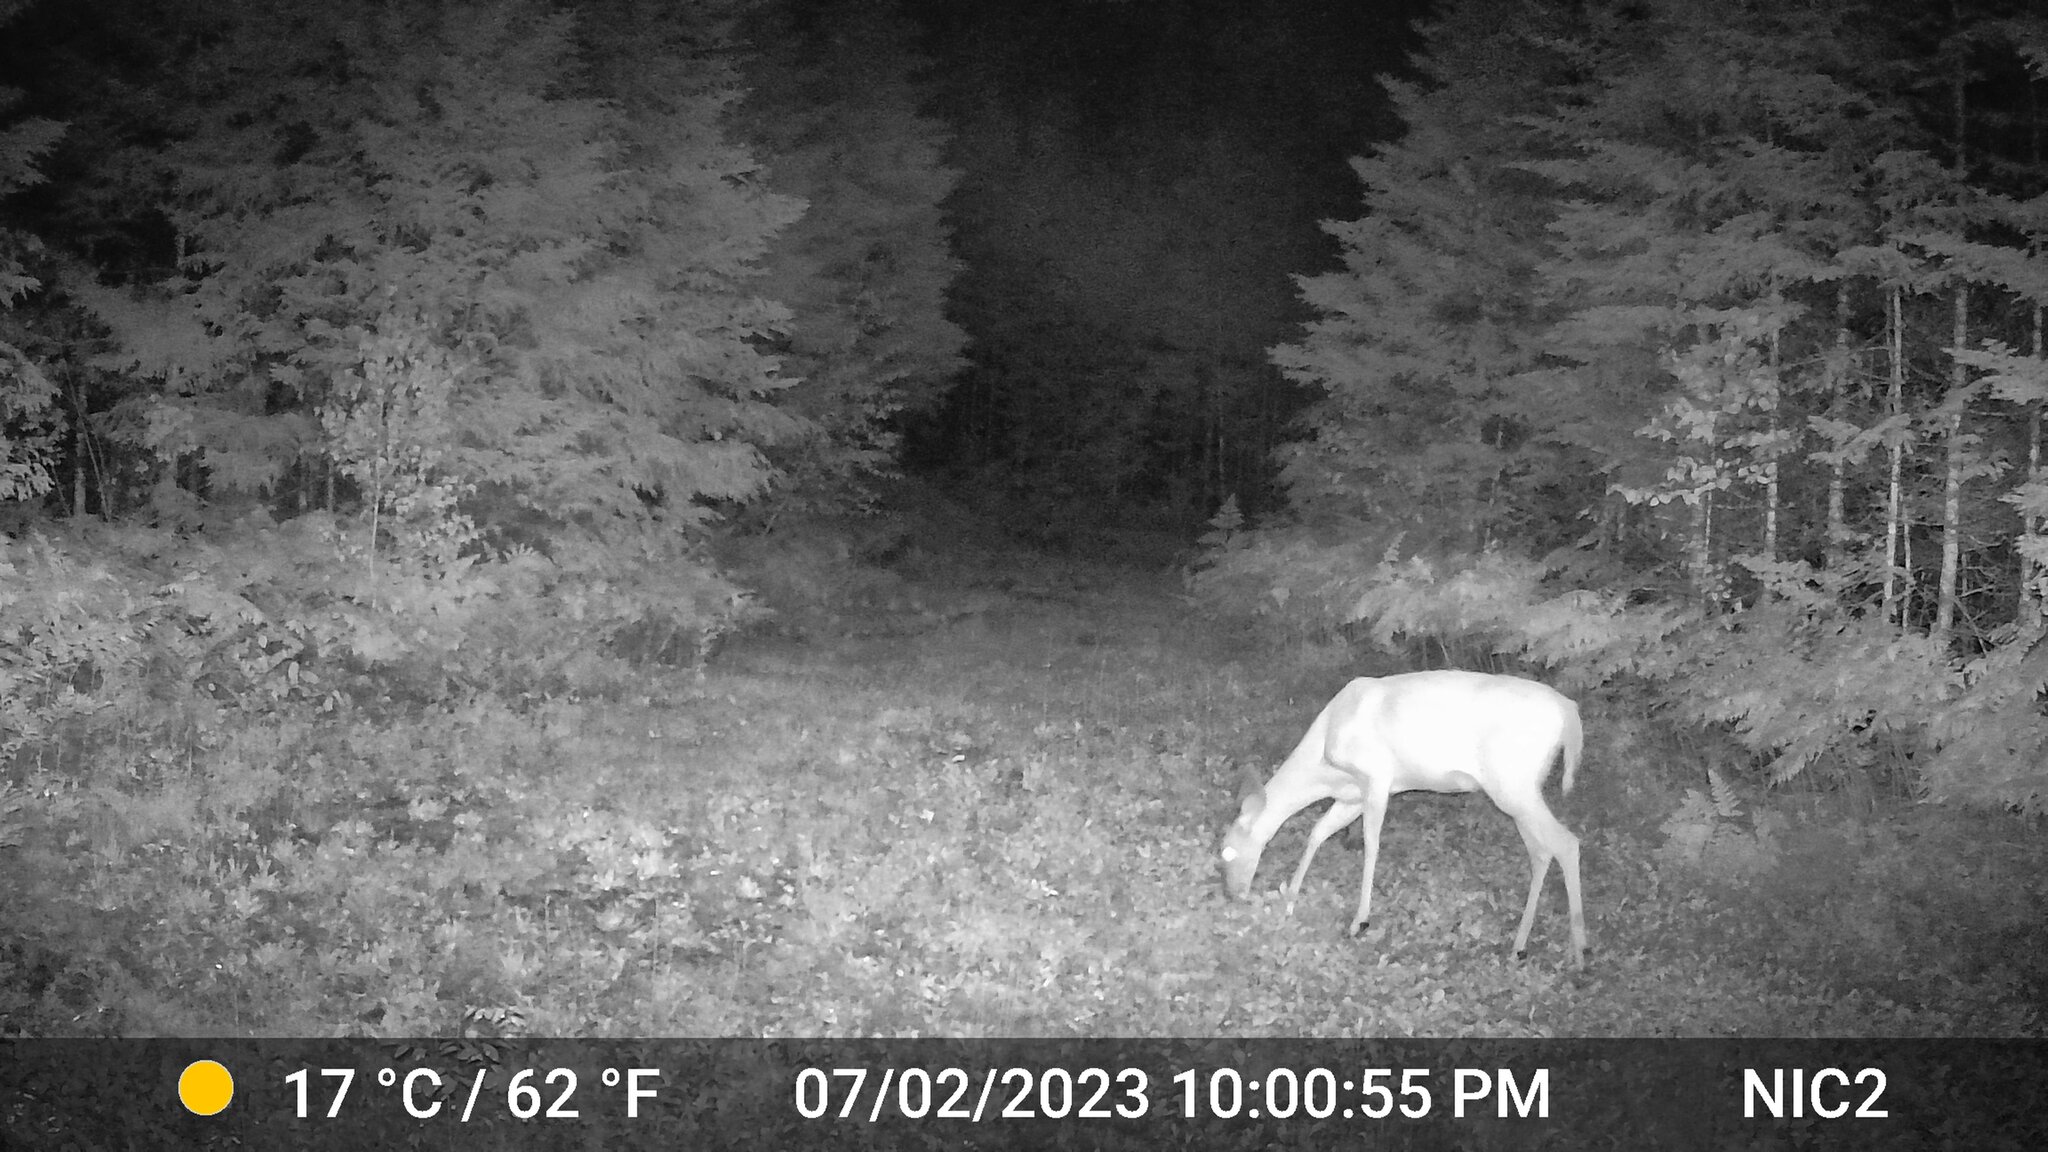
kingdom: Animalia
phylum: Chordata
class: Mammalia
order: Artiodactyla
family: Cervidae
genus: Odocoileus
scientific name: Odocoileus virginianus
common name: White-tailed deer
